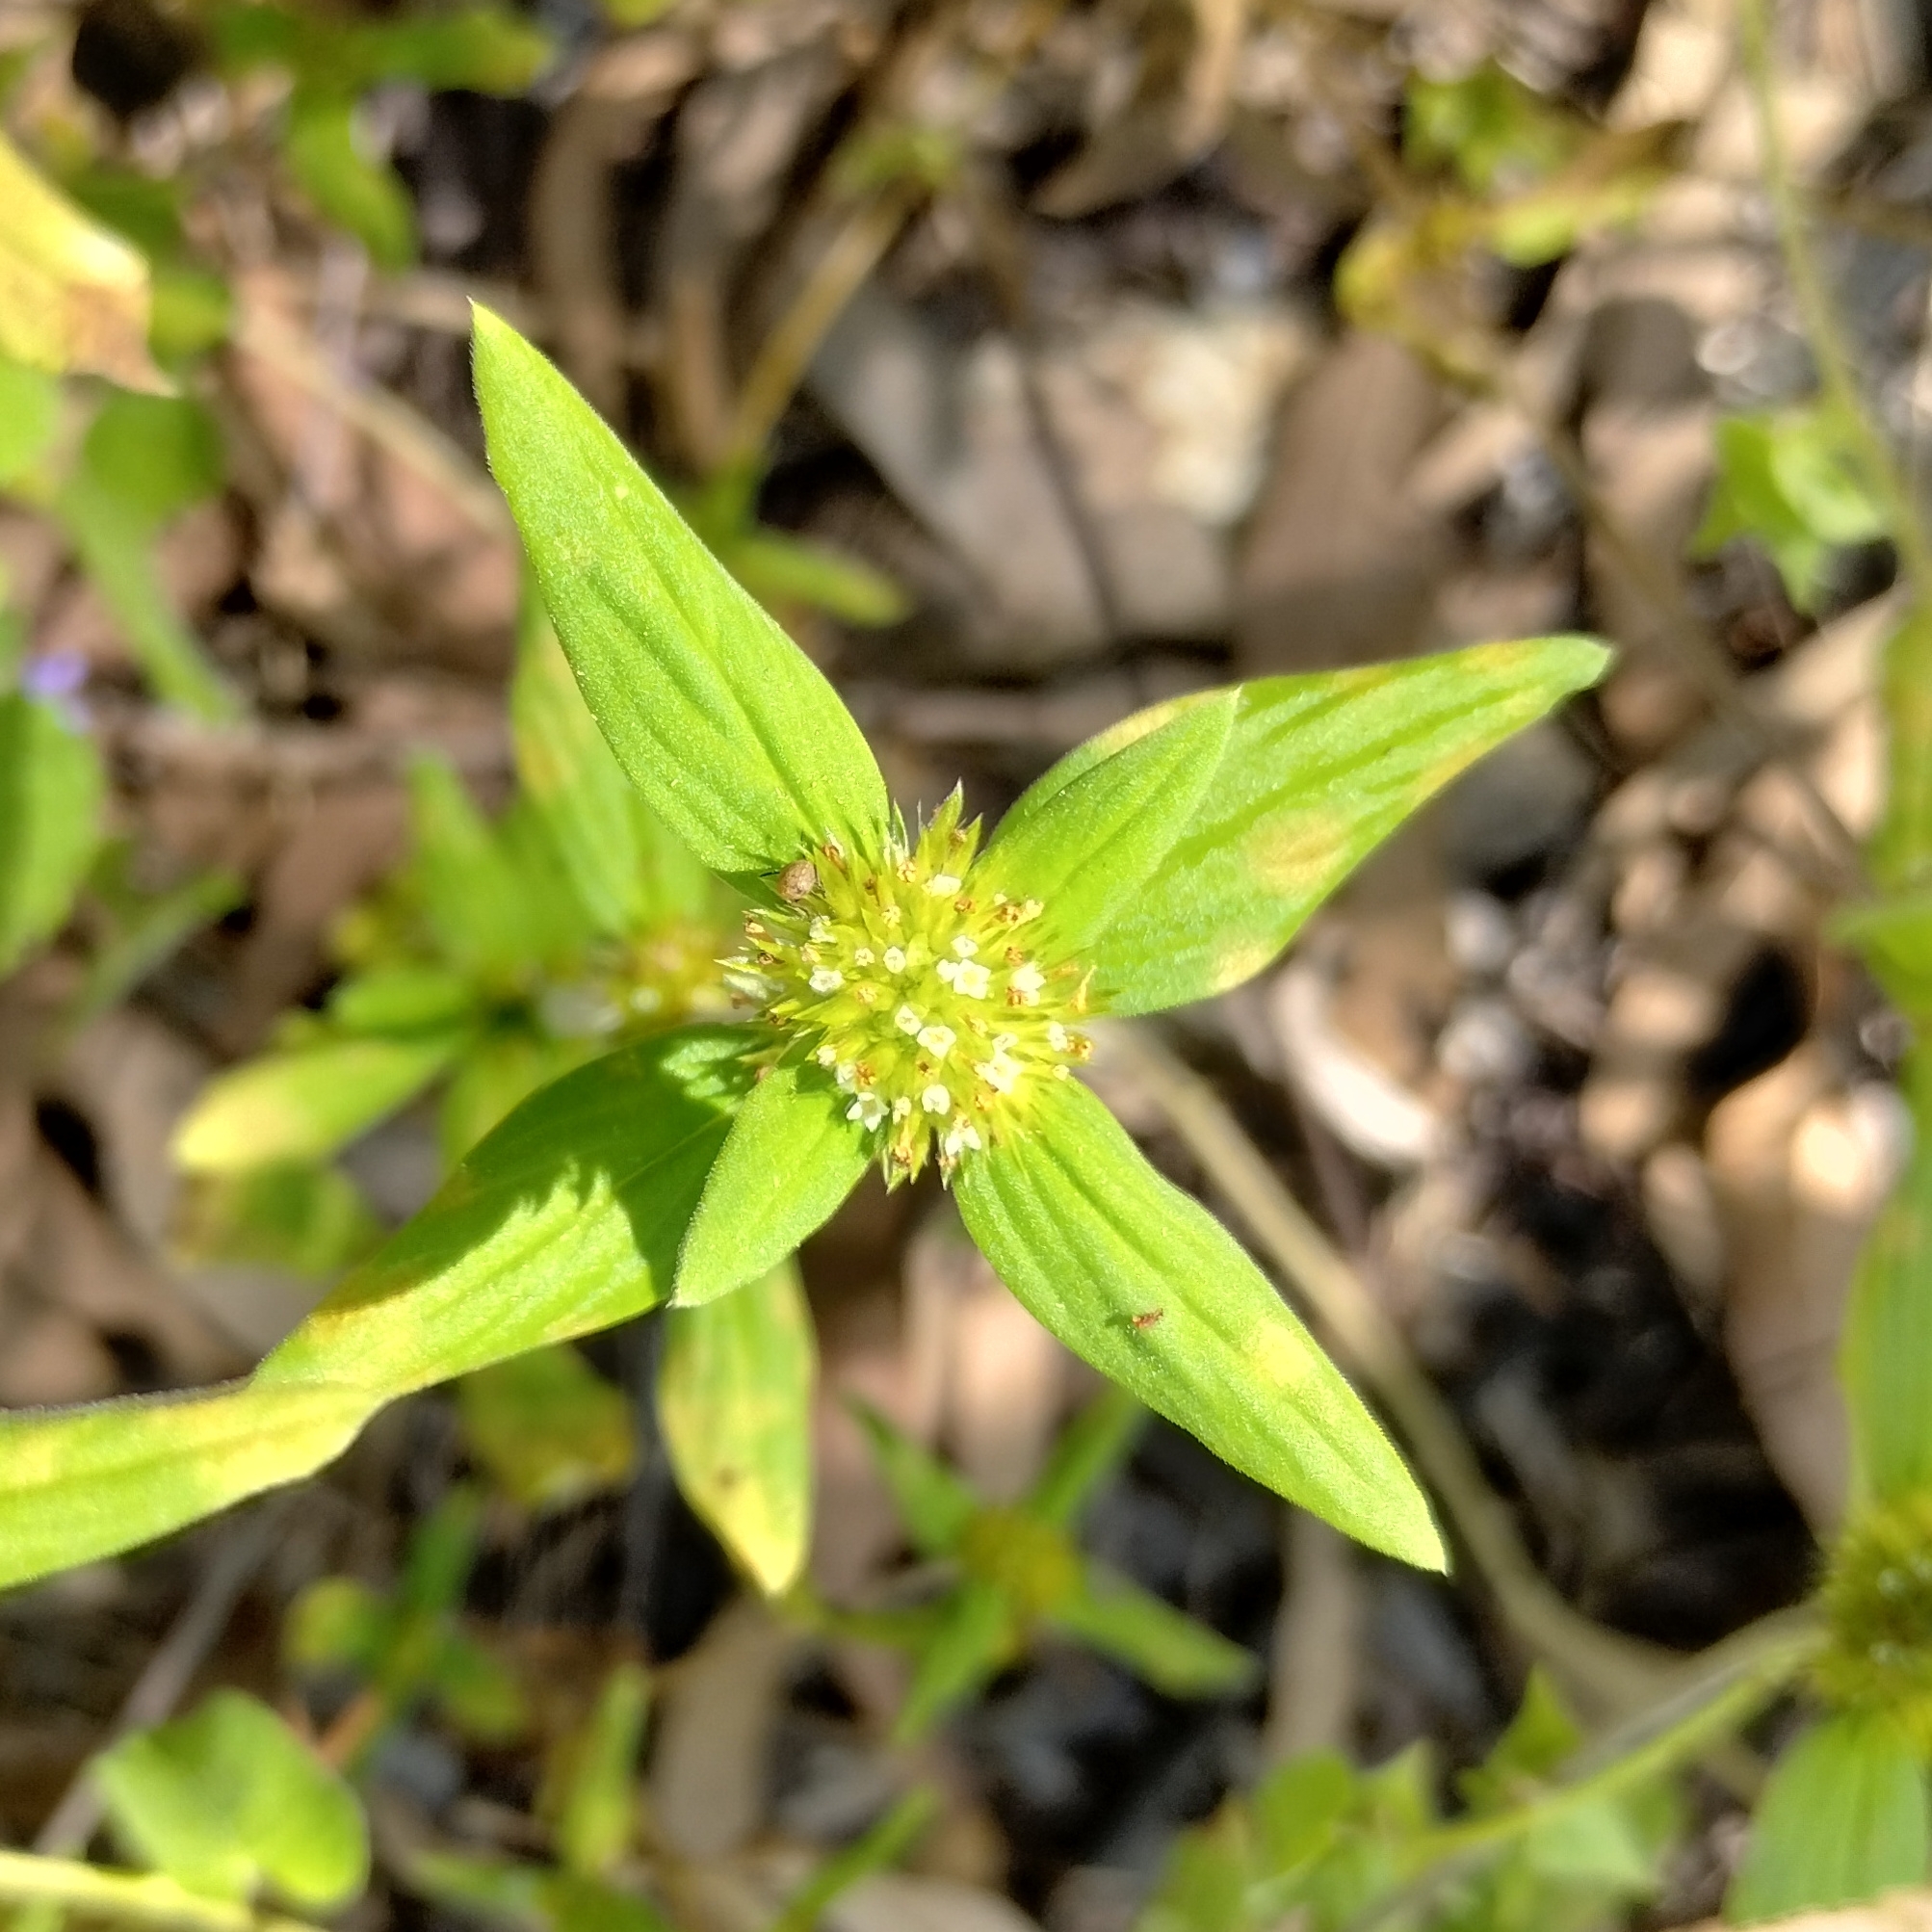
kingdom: Plantae
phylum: Tracheophyta
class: Magnoliopsida
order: Gentianales
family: Rubiaceae
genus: Mitracarpus
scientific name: Mitracarpus hirtus
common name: Tropical girdlepod
